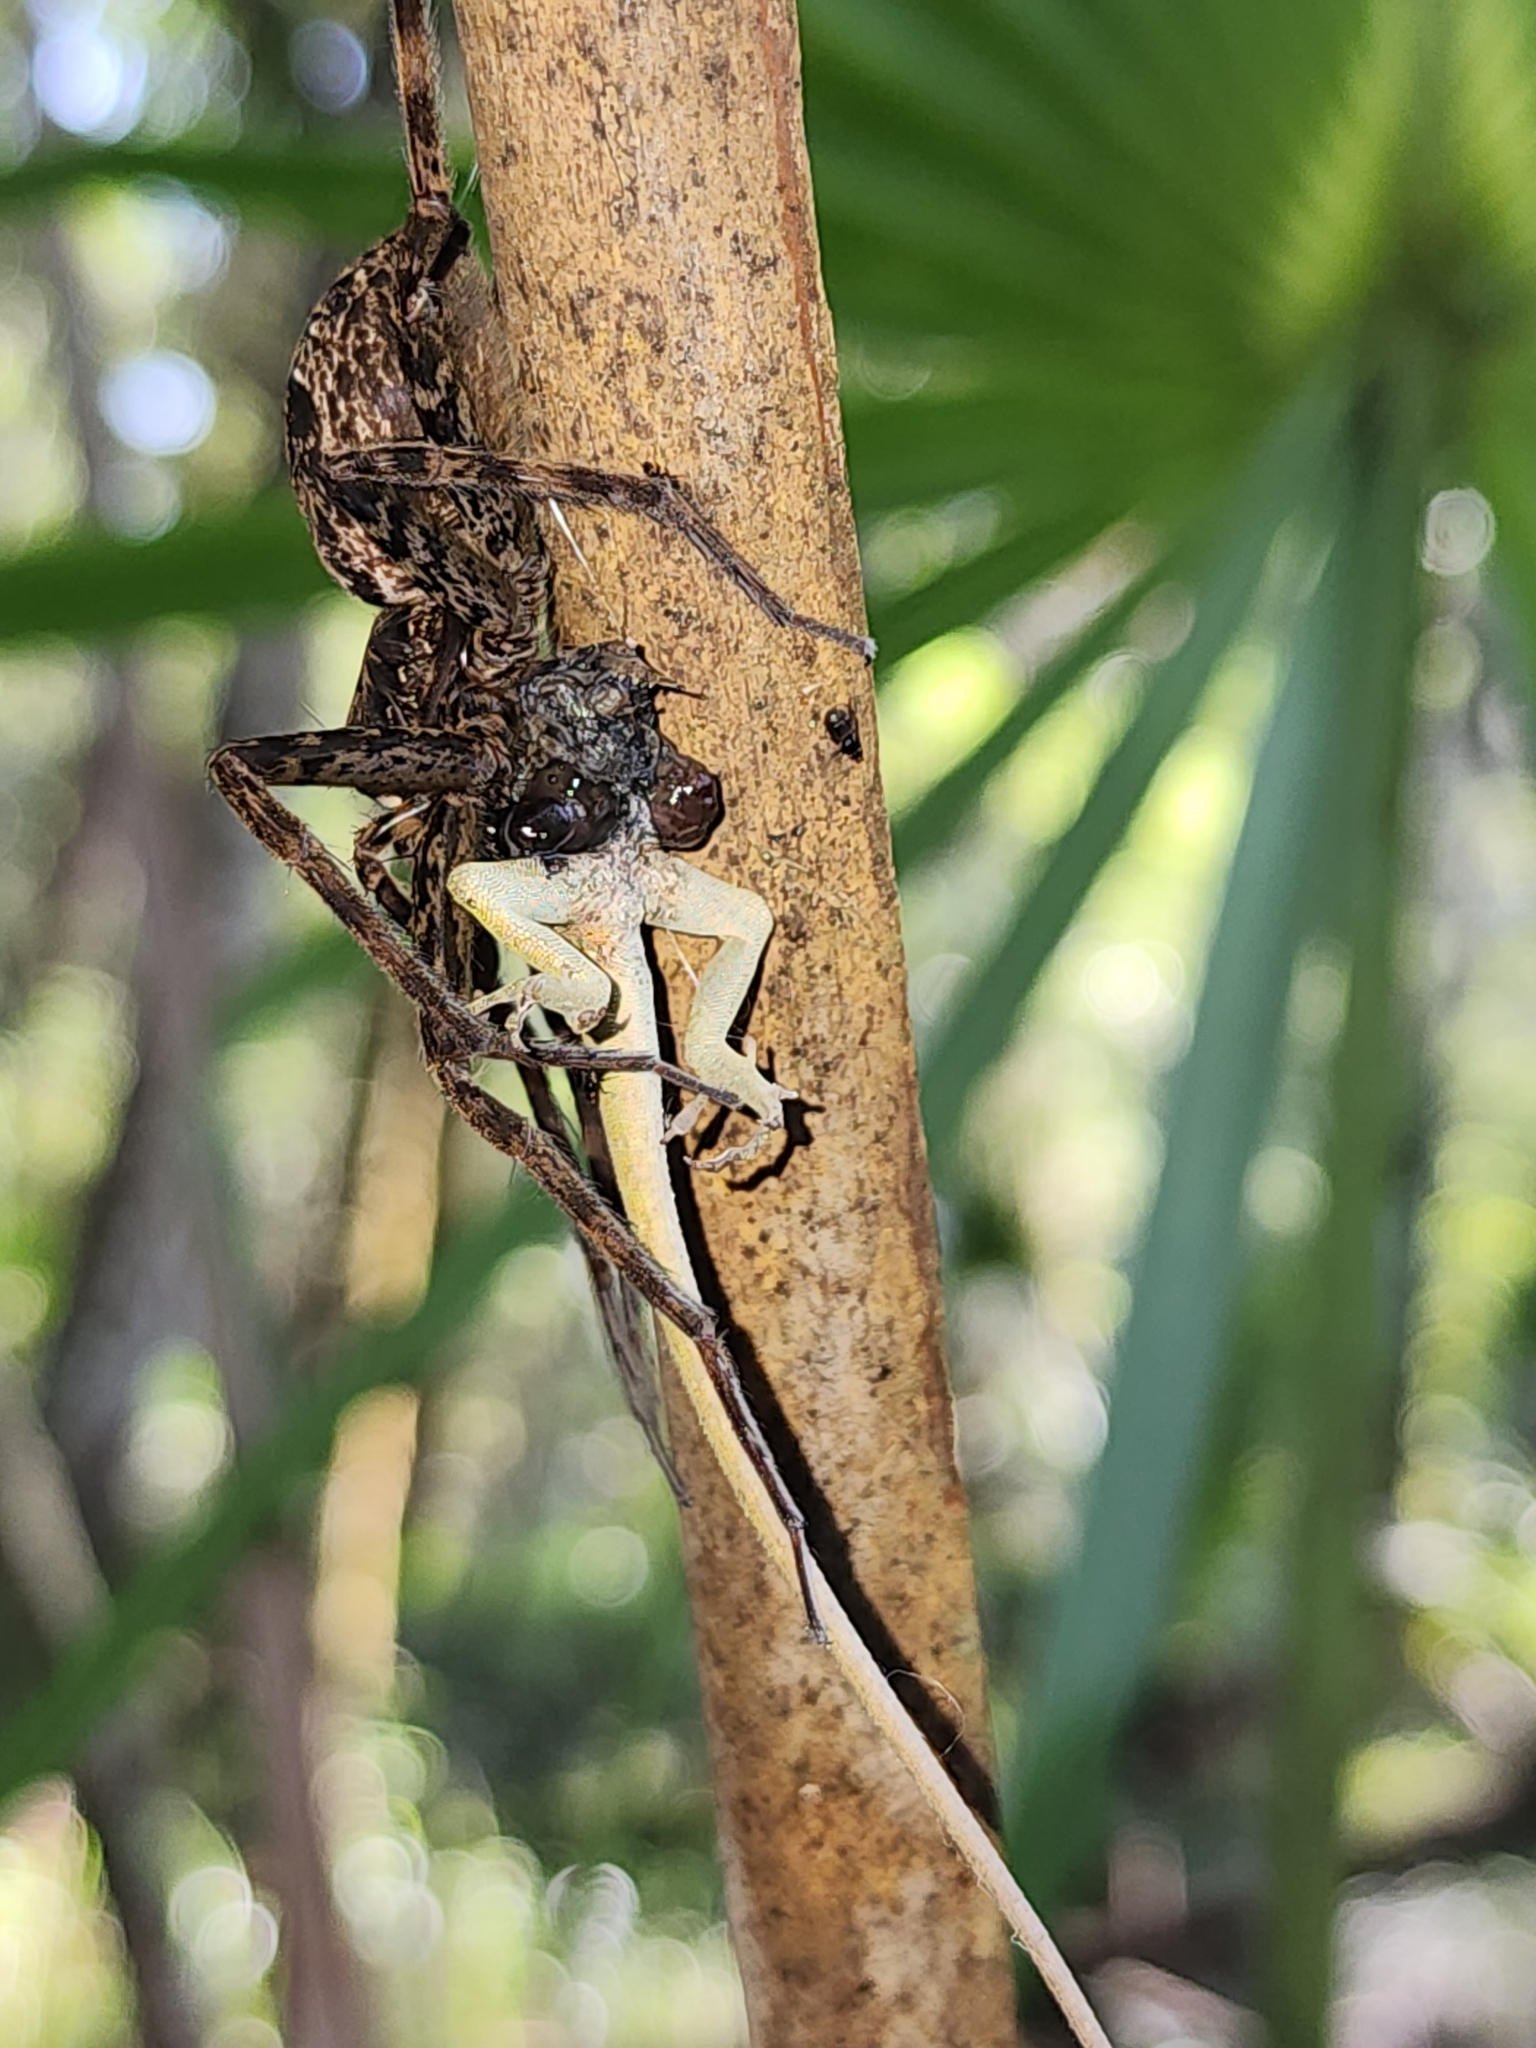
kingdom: Animalia
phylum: Chordata
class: Squamata
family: Dactyloidae
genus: Anolis
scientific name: Anolis carolinensis
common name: Green anole
